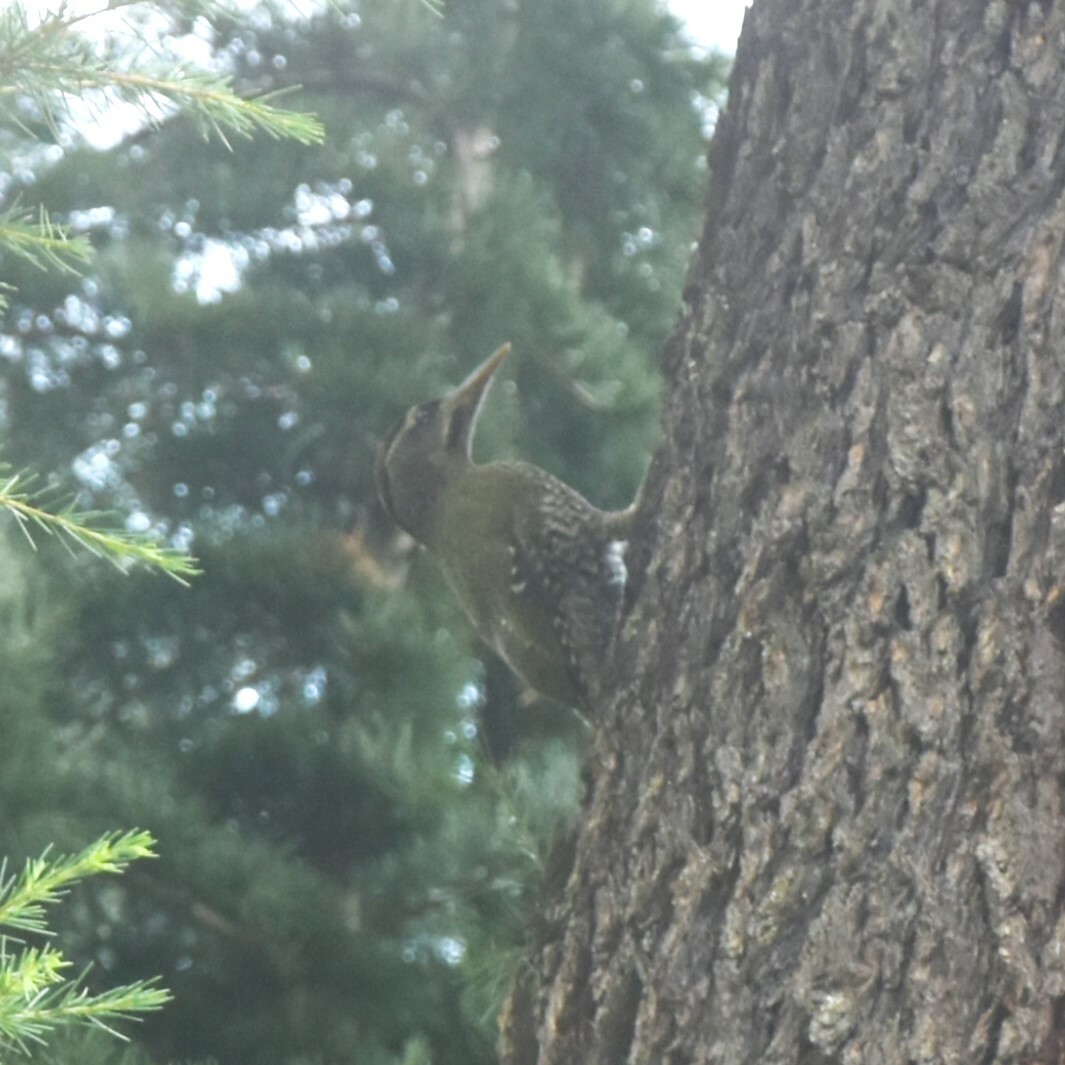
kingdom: Animalia
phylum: Chordata
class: Aves
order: Piciformes
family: Picidae
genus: Picus
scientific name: Picus squamatus
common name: Scaly-bellied woodpecker
